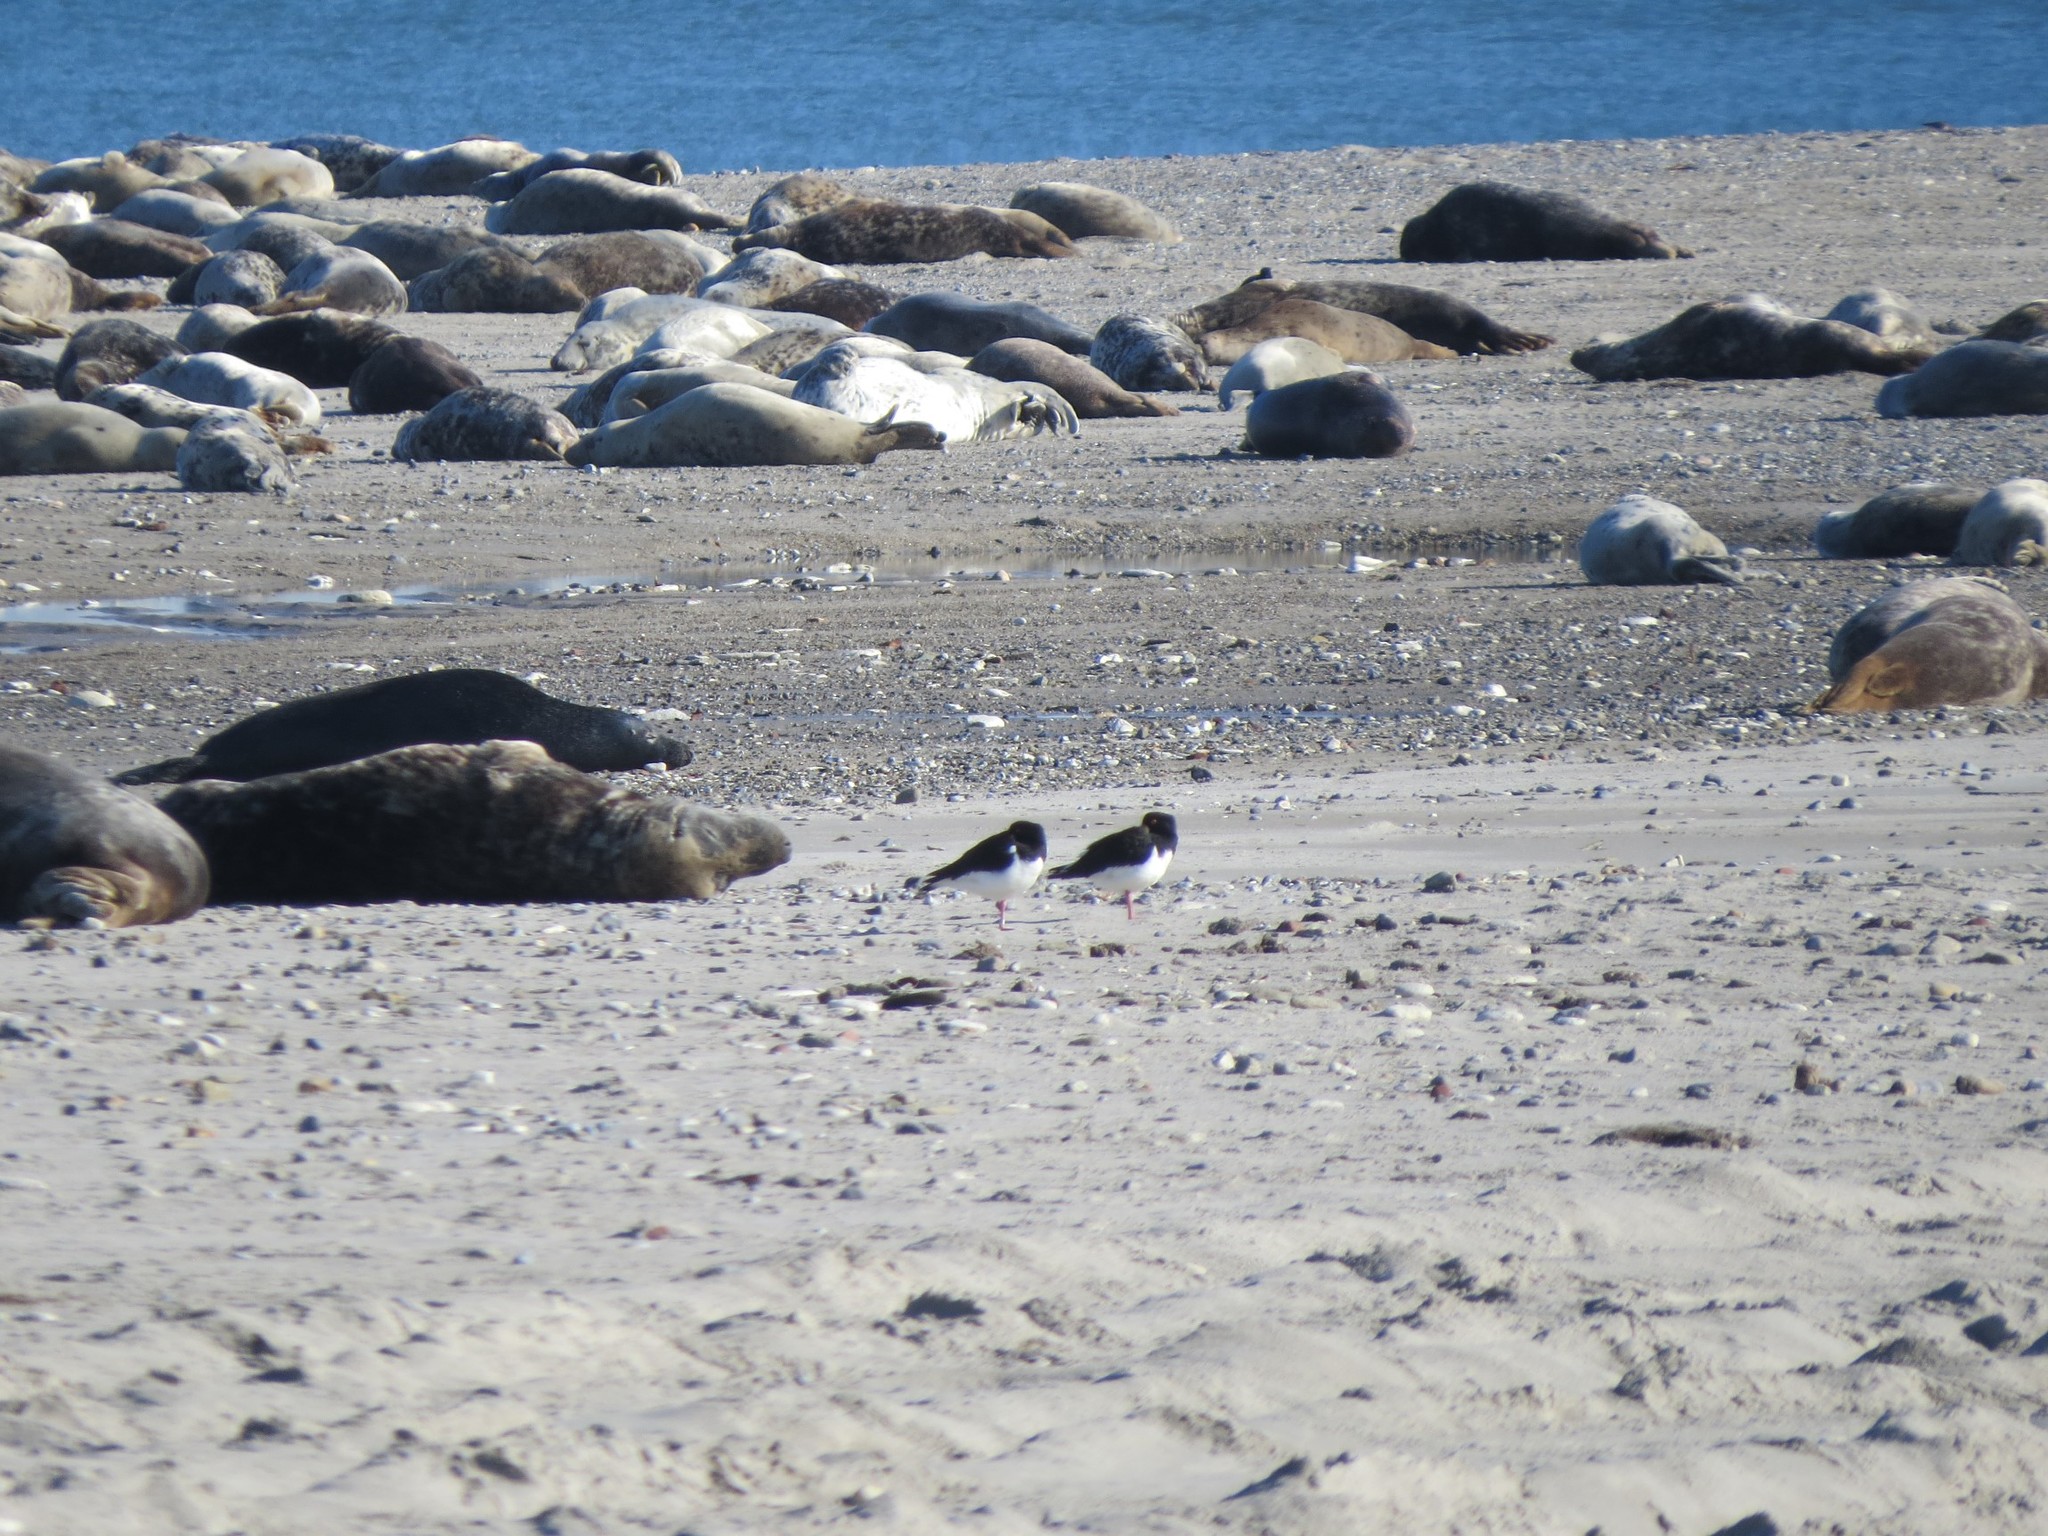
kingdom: Animalia
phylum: Chordata
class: Aves
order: Charadriiformes
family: Haematopodidae
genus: Haematopus
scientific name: Haematopus ostralegus
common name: Eurasian oystercatcher
